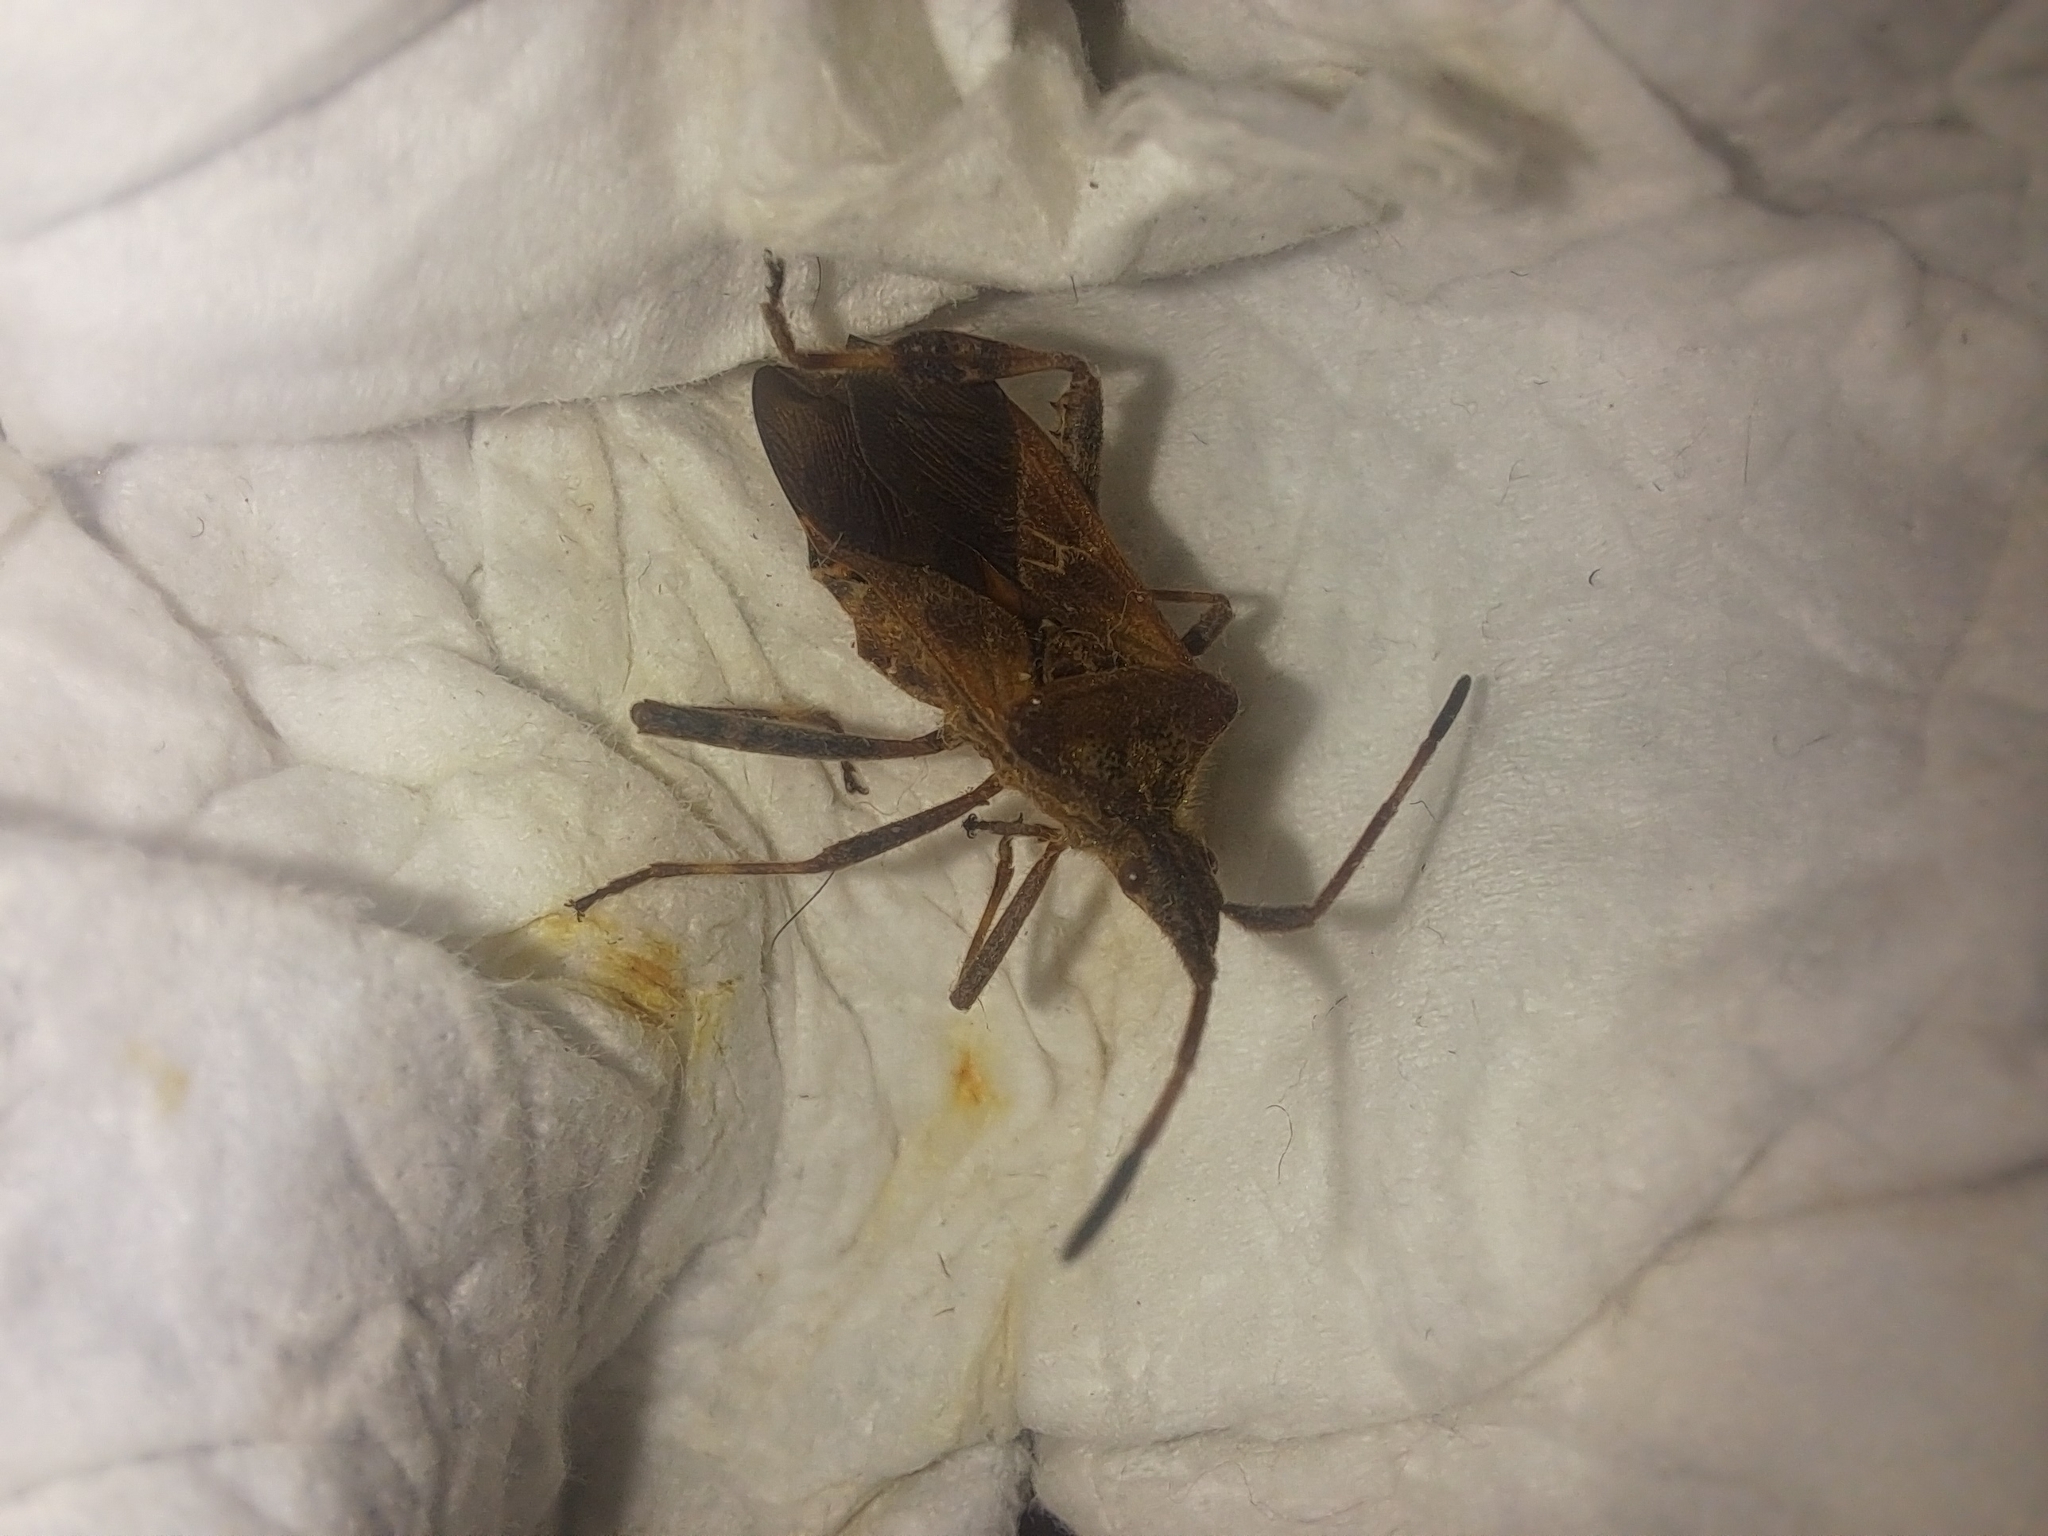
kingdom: Animalia
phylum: Arthropoda
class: Insecta
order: Hemiptera
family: Coreidae
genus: Leptoglossus
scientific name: Leptoglossus occidentalis
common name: Western conifer-seed bug
